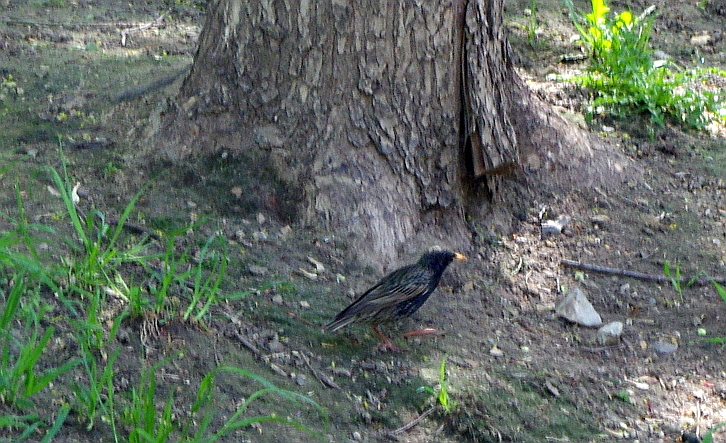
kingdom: Animalia
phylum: Chordata
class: Aves
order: Passeriformes
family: Sturnidae
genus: Sturnus
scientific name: Sturnus vulgaris
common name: Common starling
